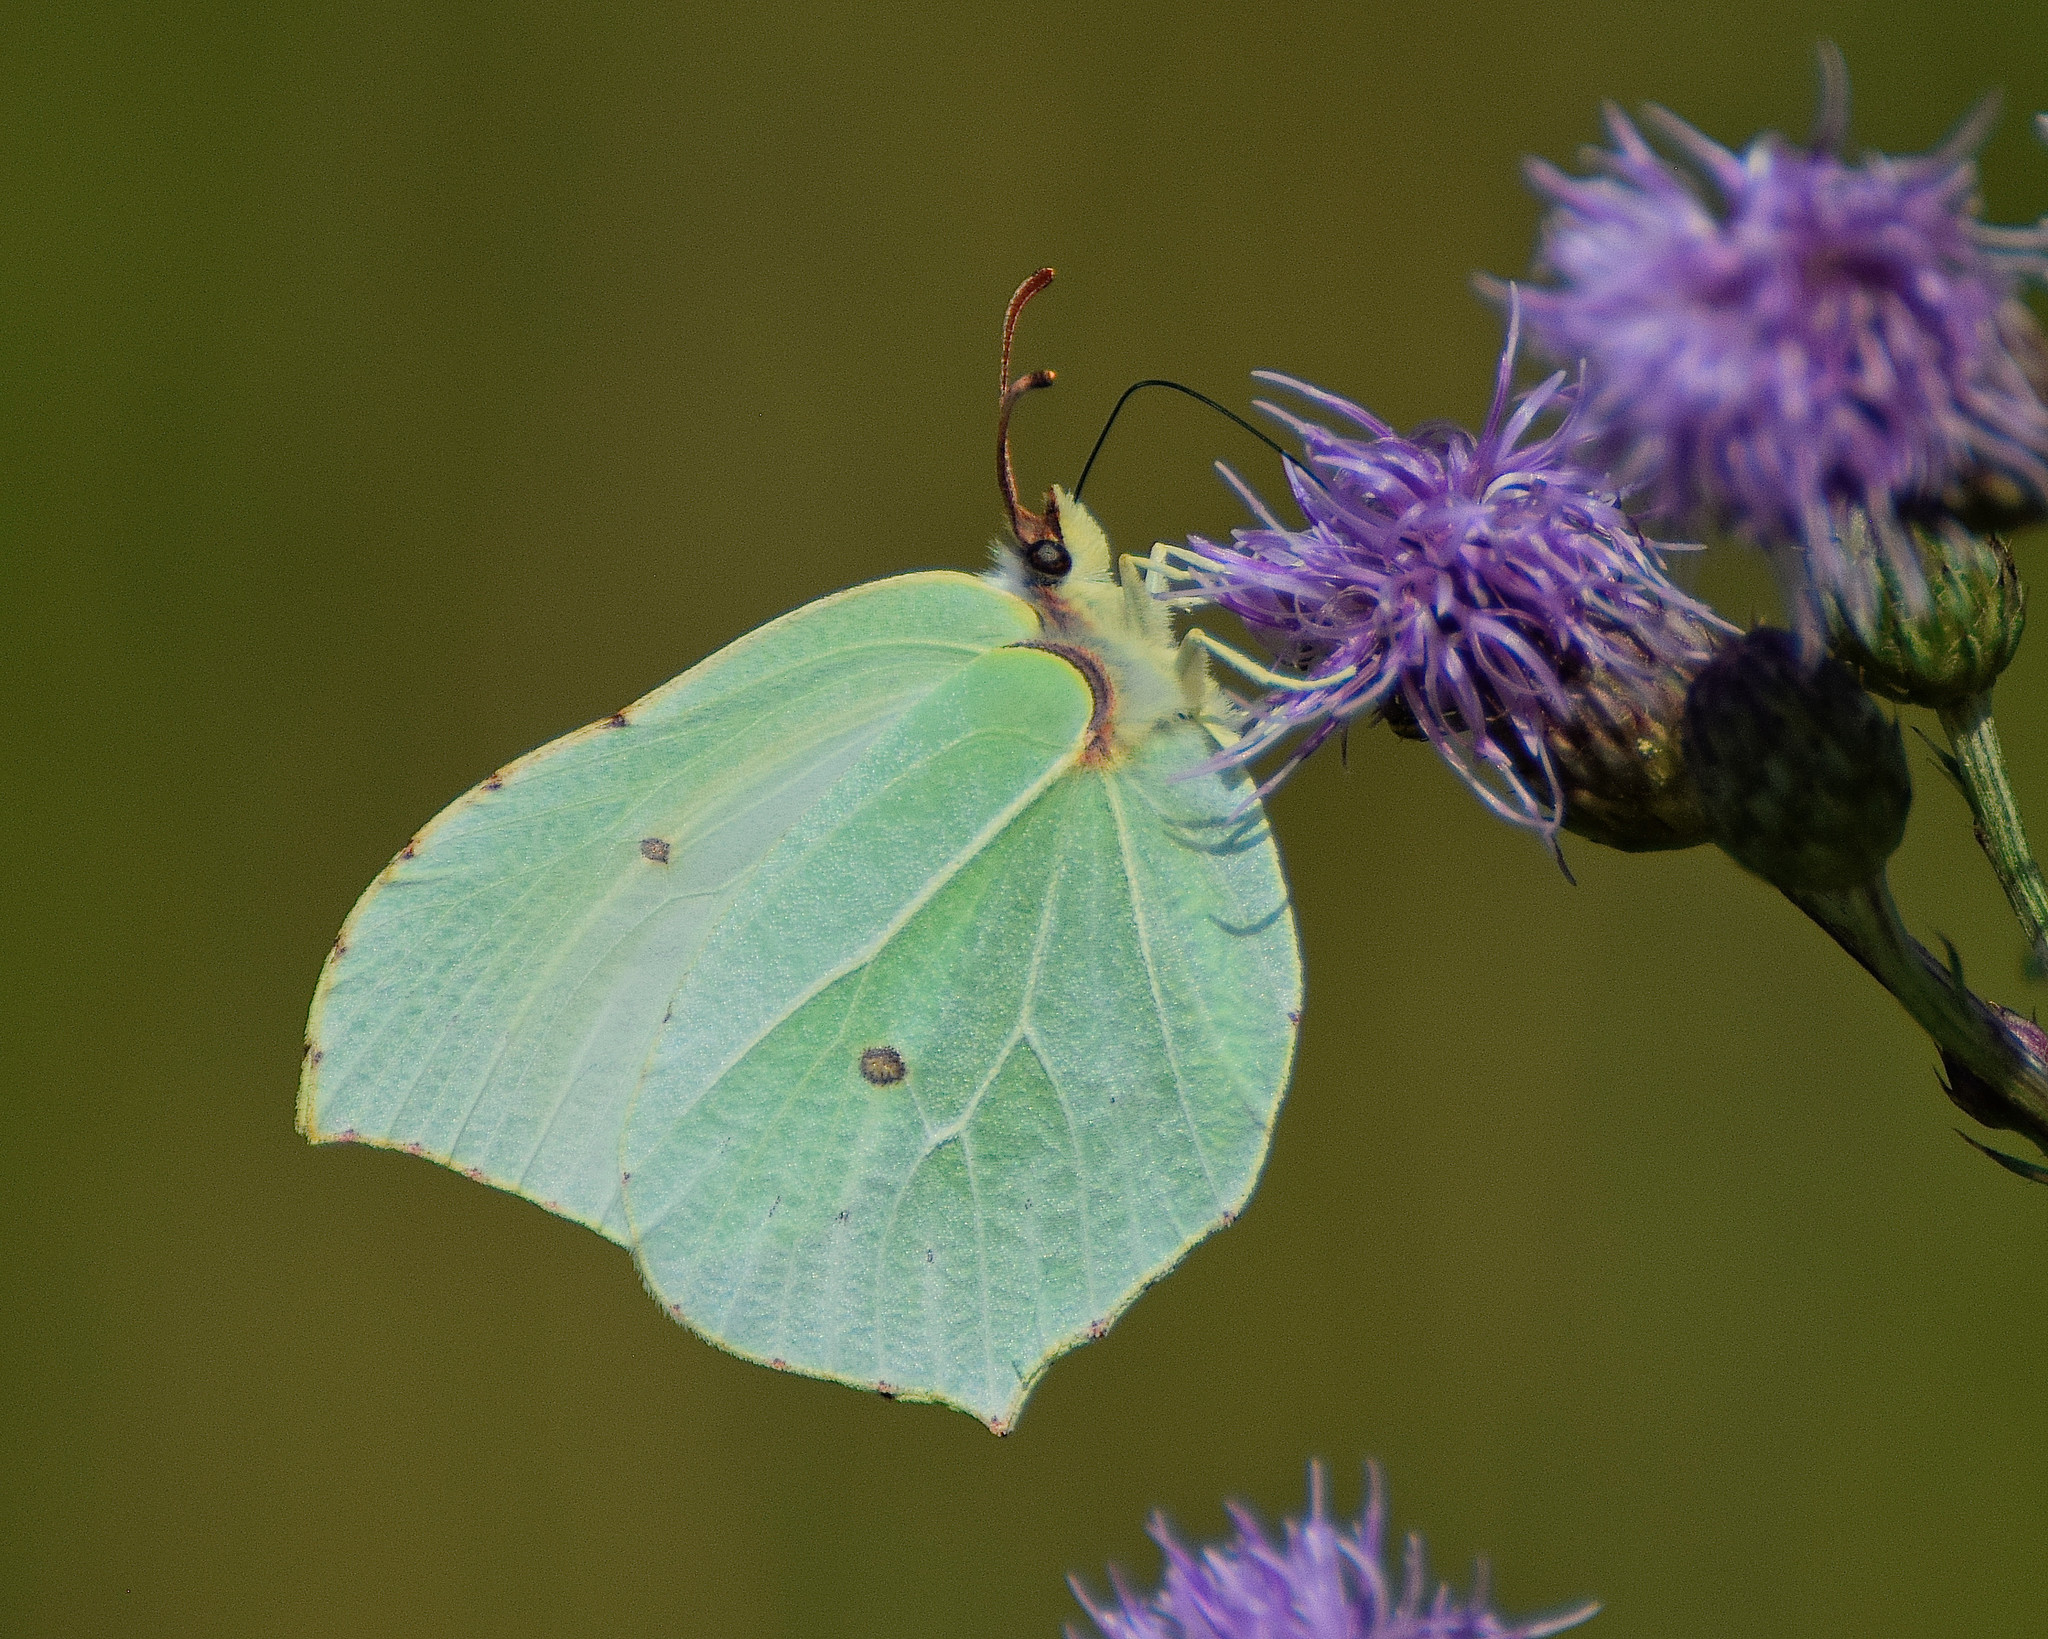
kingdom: Animalia
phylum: Arthropoda
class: Insecta
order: Lepidoptera
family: Pieridae
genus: Gonepteryx
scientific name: Gonepteryx rhamni
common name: Brimstone
